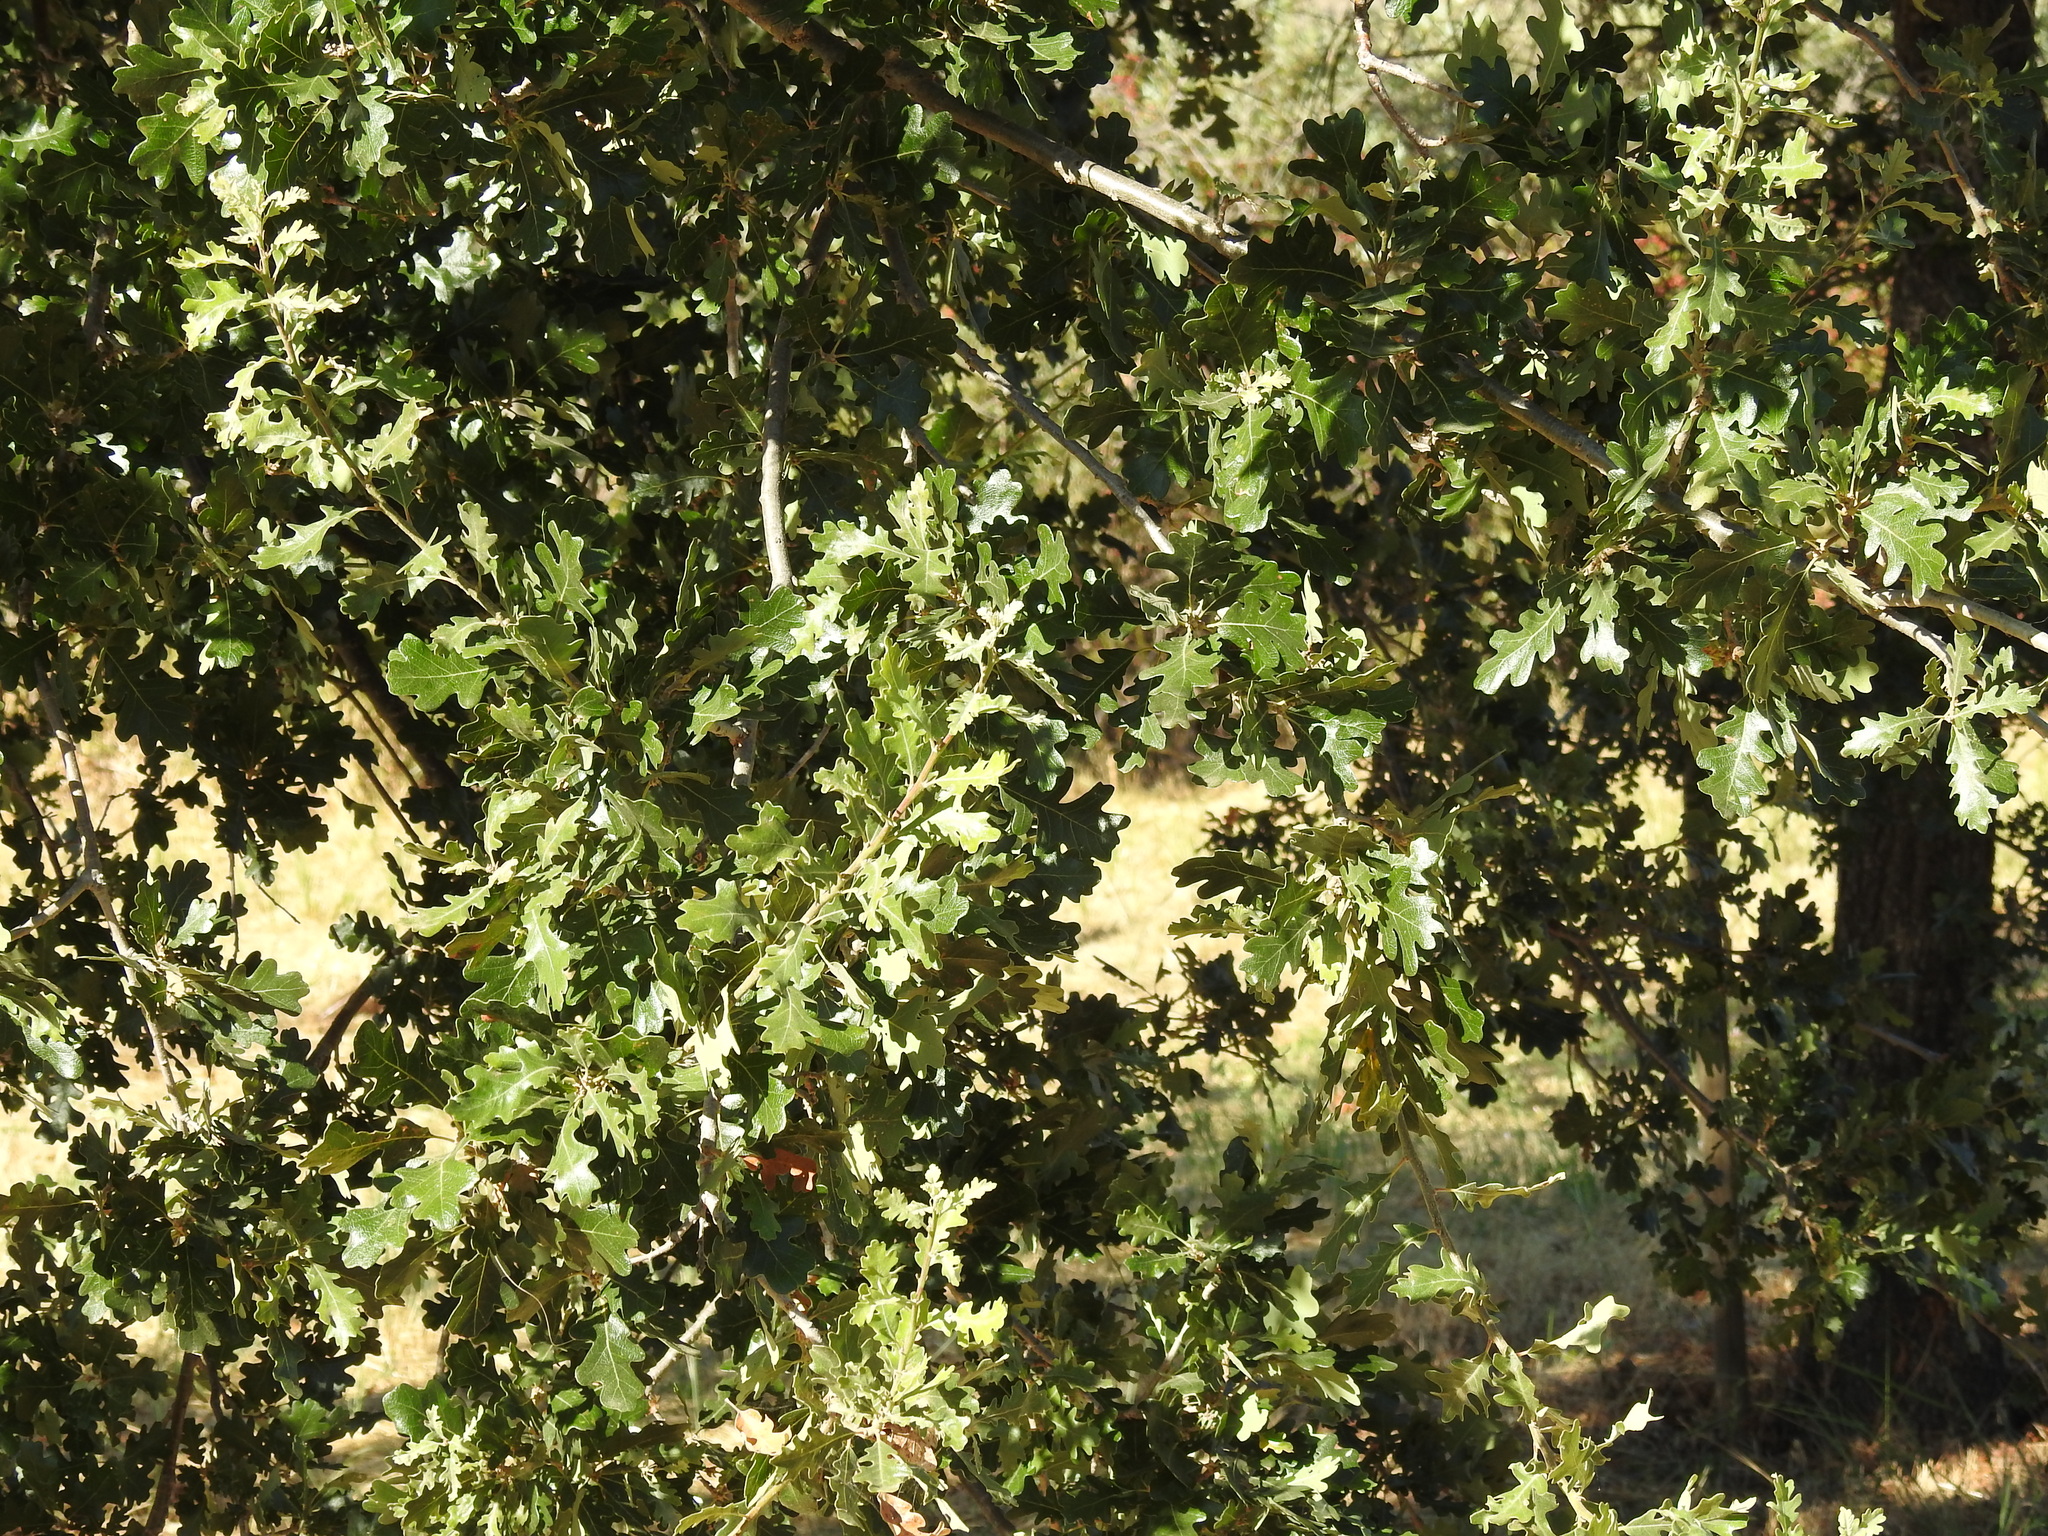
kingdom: Plantae
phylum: Tracheophyta
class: Magnoliopsida
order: Fagales
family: Fagaceae
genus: Quercus
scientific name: Quercus lobata
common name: Valley oak
